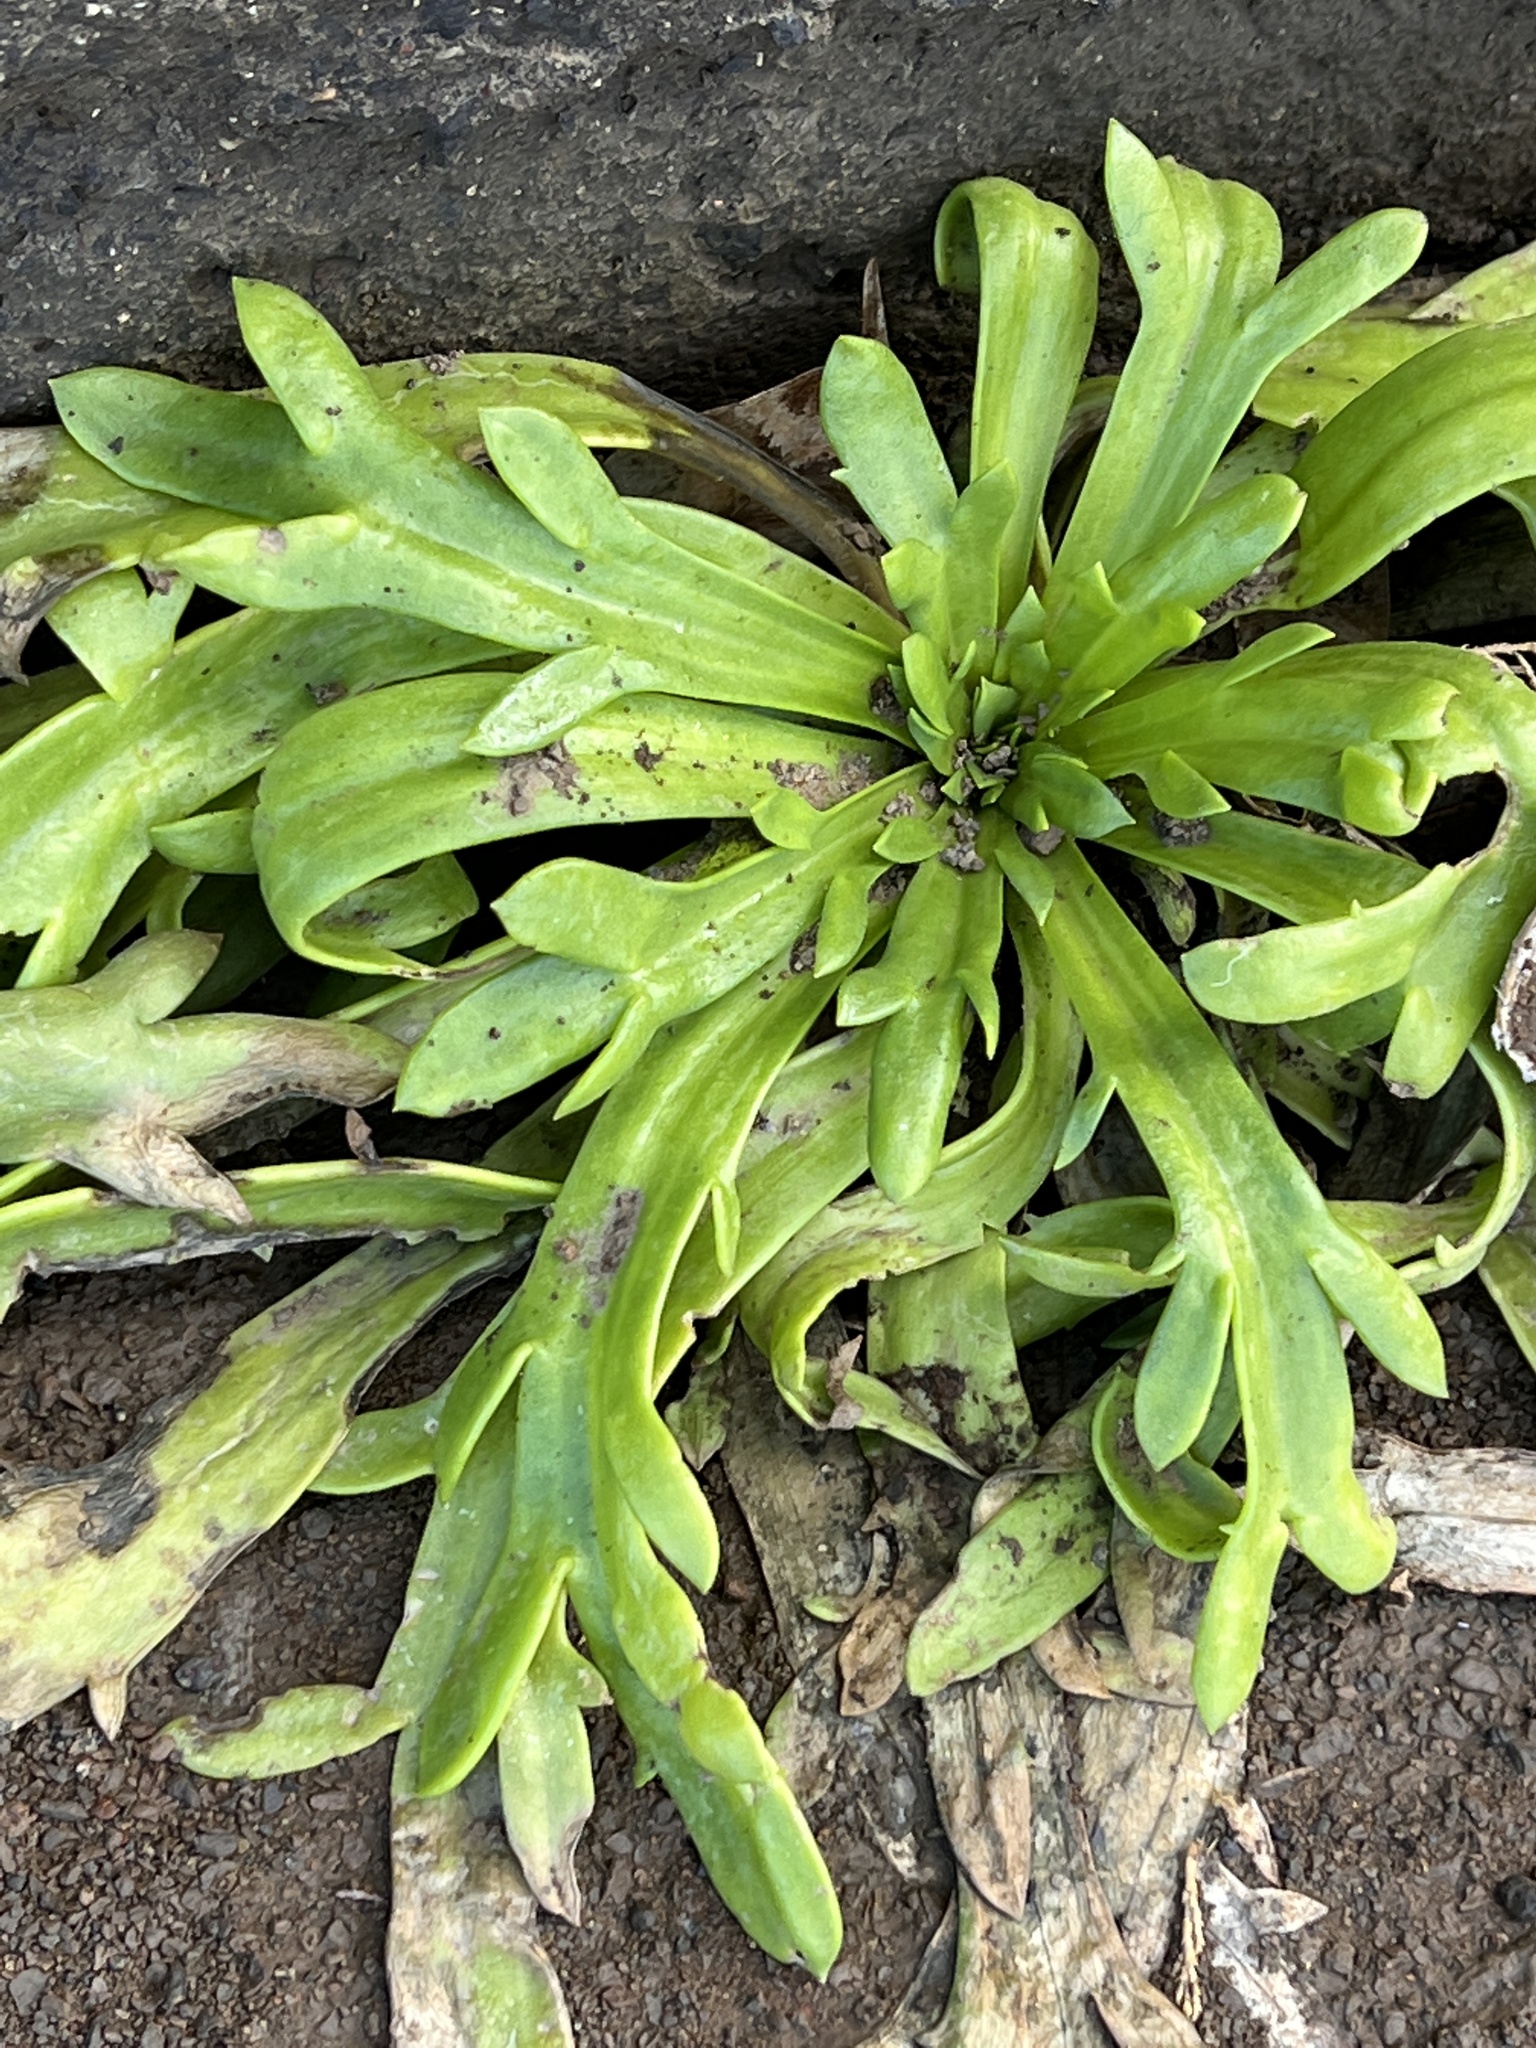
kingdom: Plantae
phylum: Tracheophyta
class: Magnoliopsida
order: Lamiales
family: Plantaginaceae
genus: Plantago
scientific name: Plantago coronopus
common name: Buck's-horn plantain
